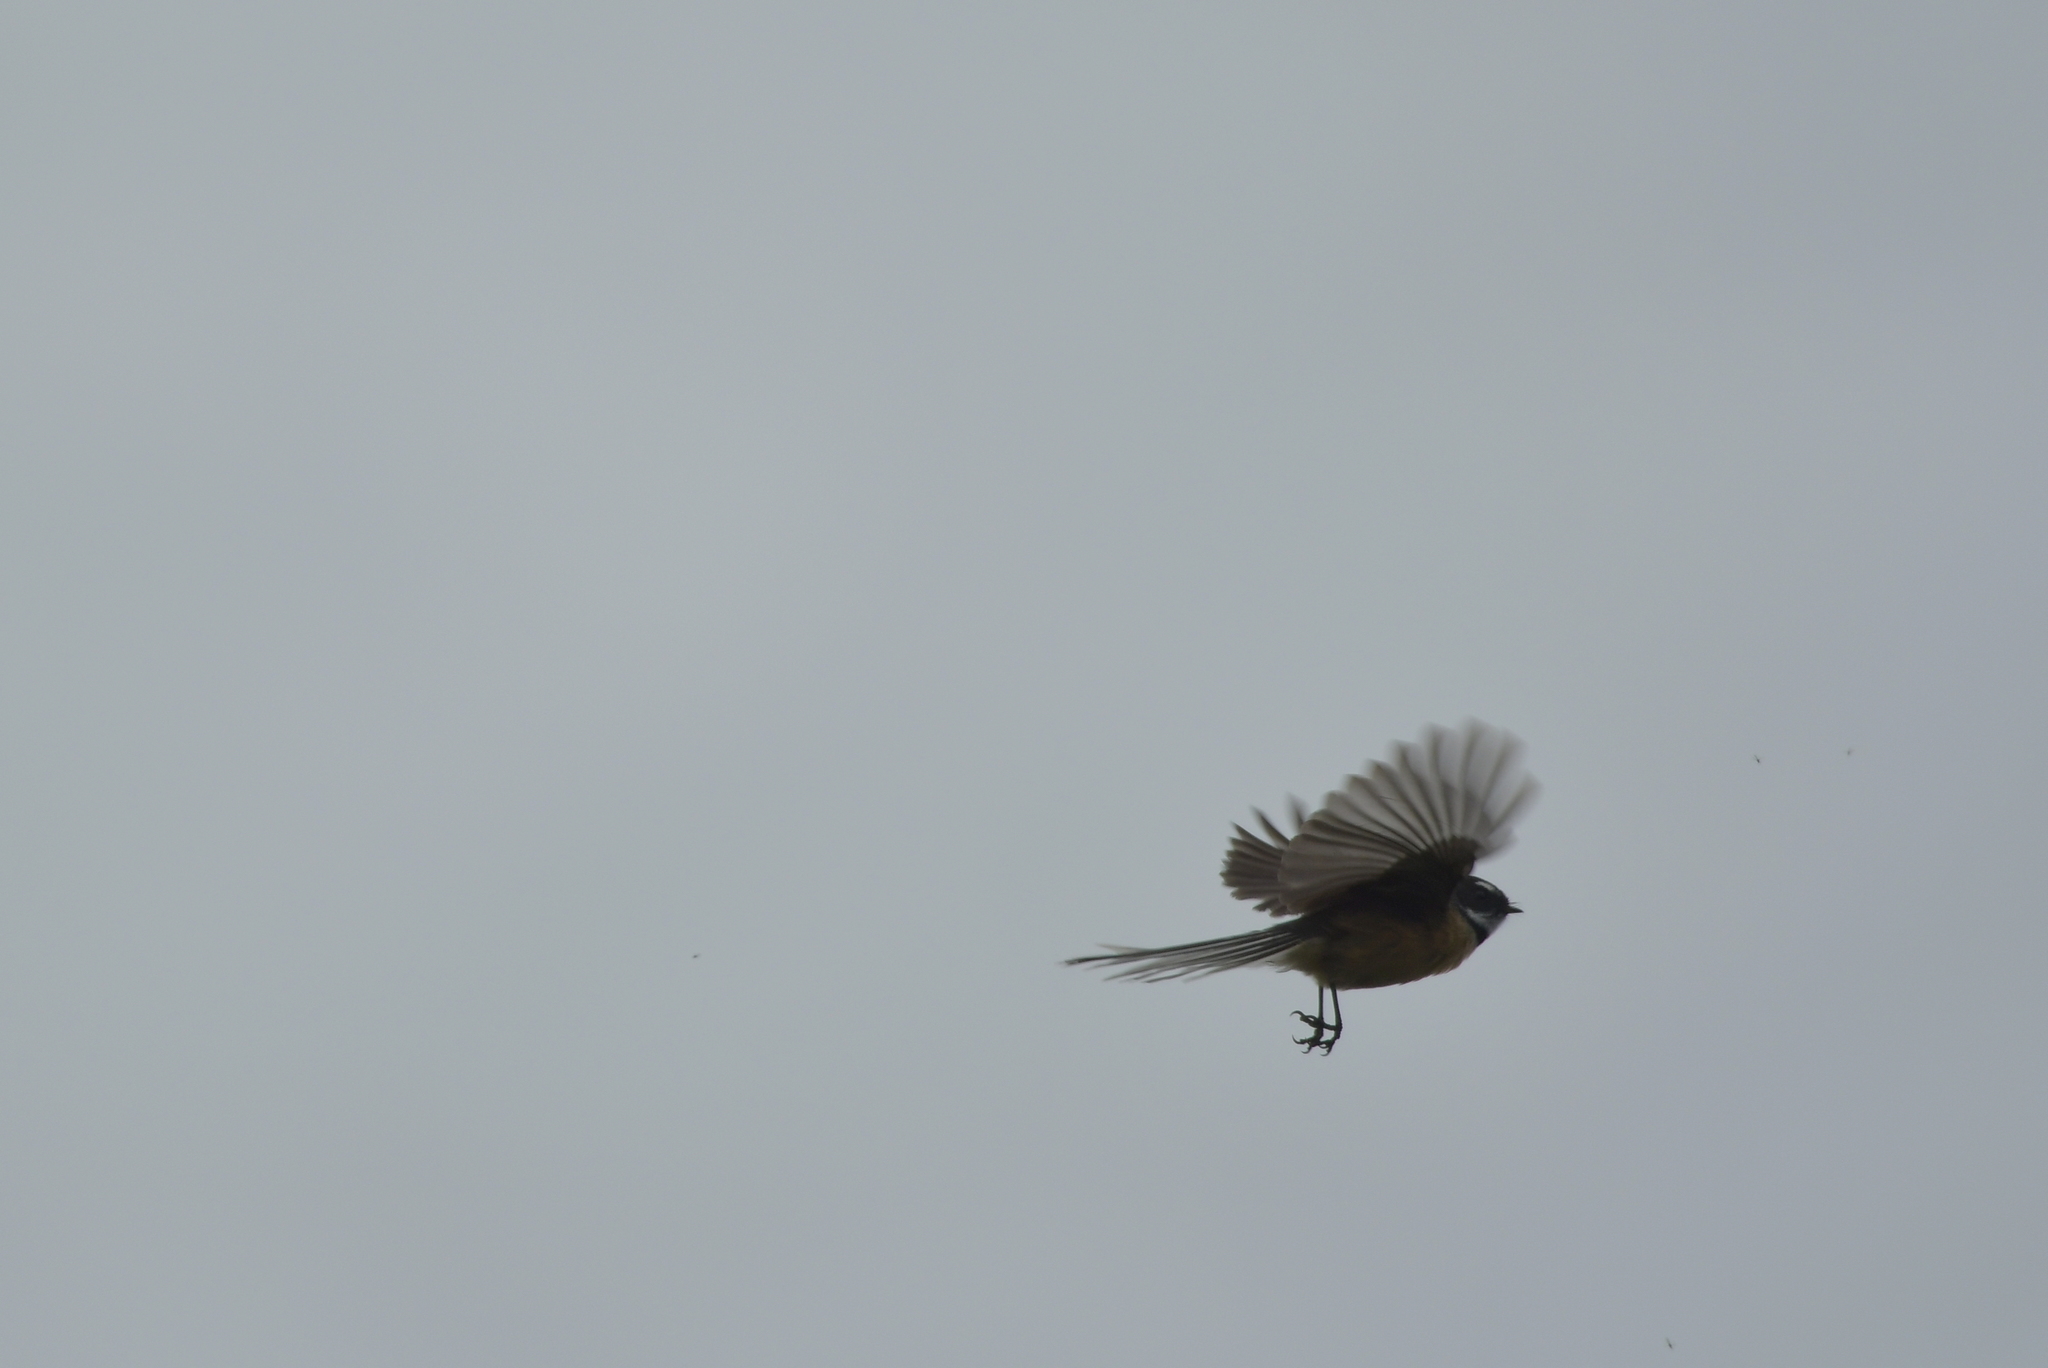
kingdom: Animalia
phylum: Chordata
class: Aves
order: Passeriformes
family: Rhipiduridae
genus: Rhipidura
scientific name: Rhipidura fuliginosa
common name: New zealand fantail
